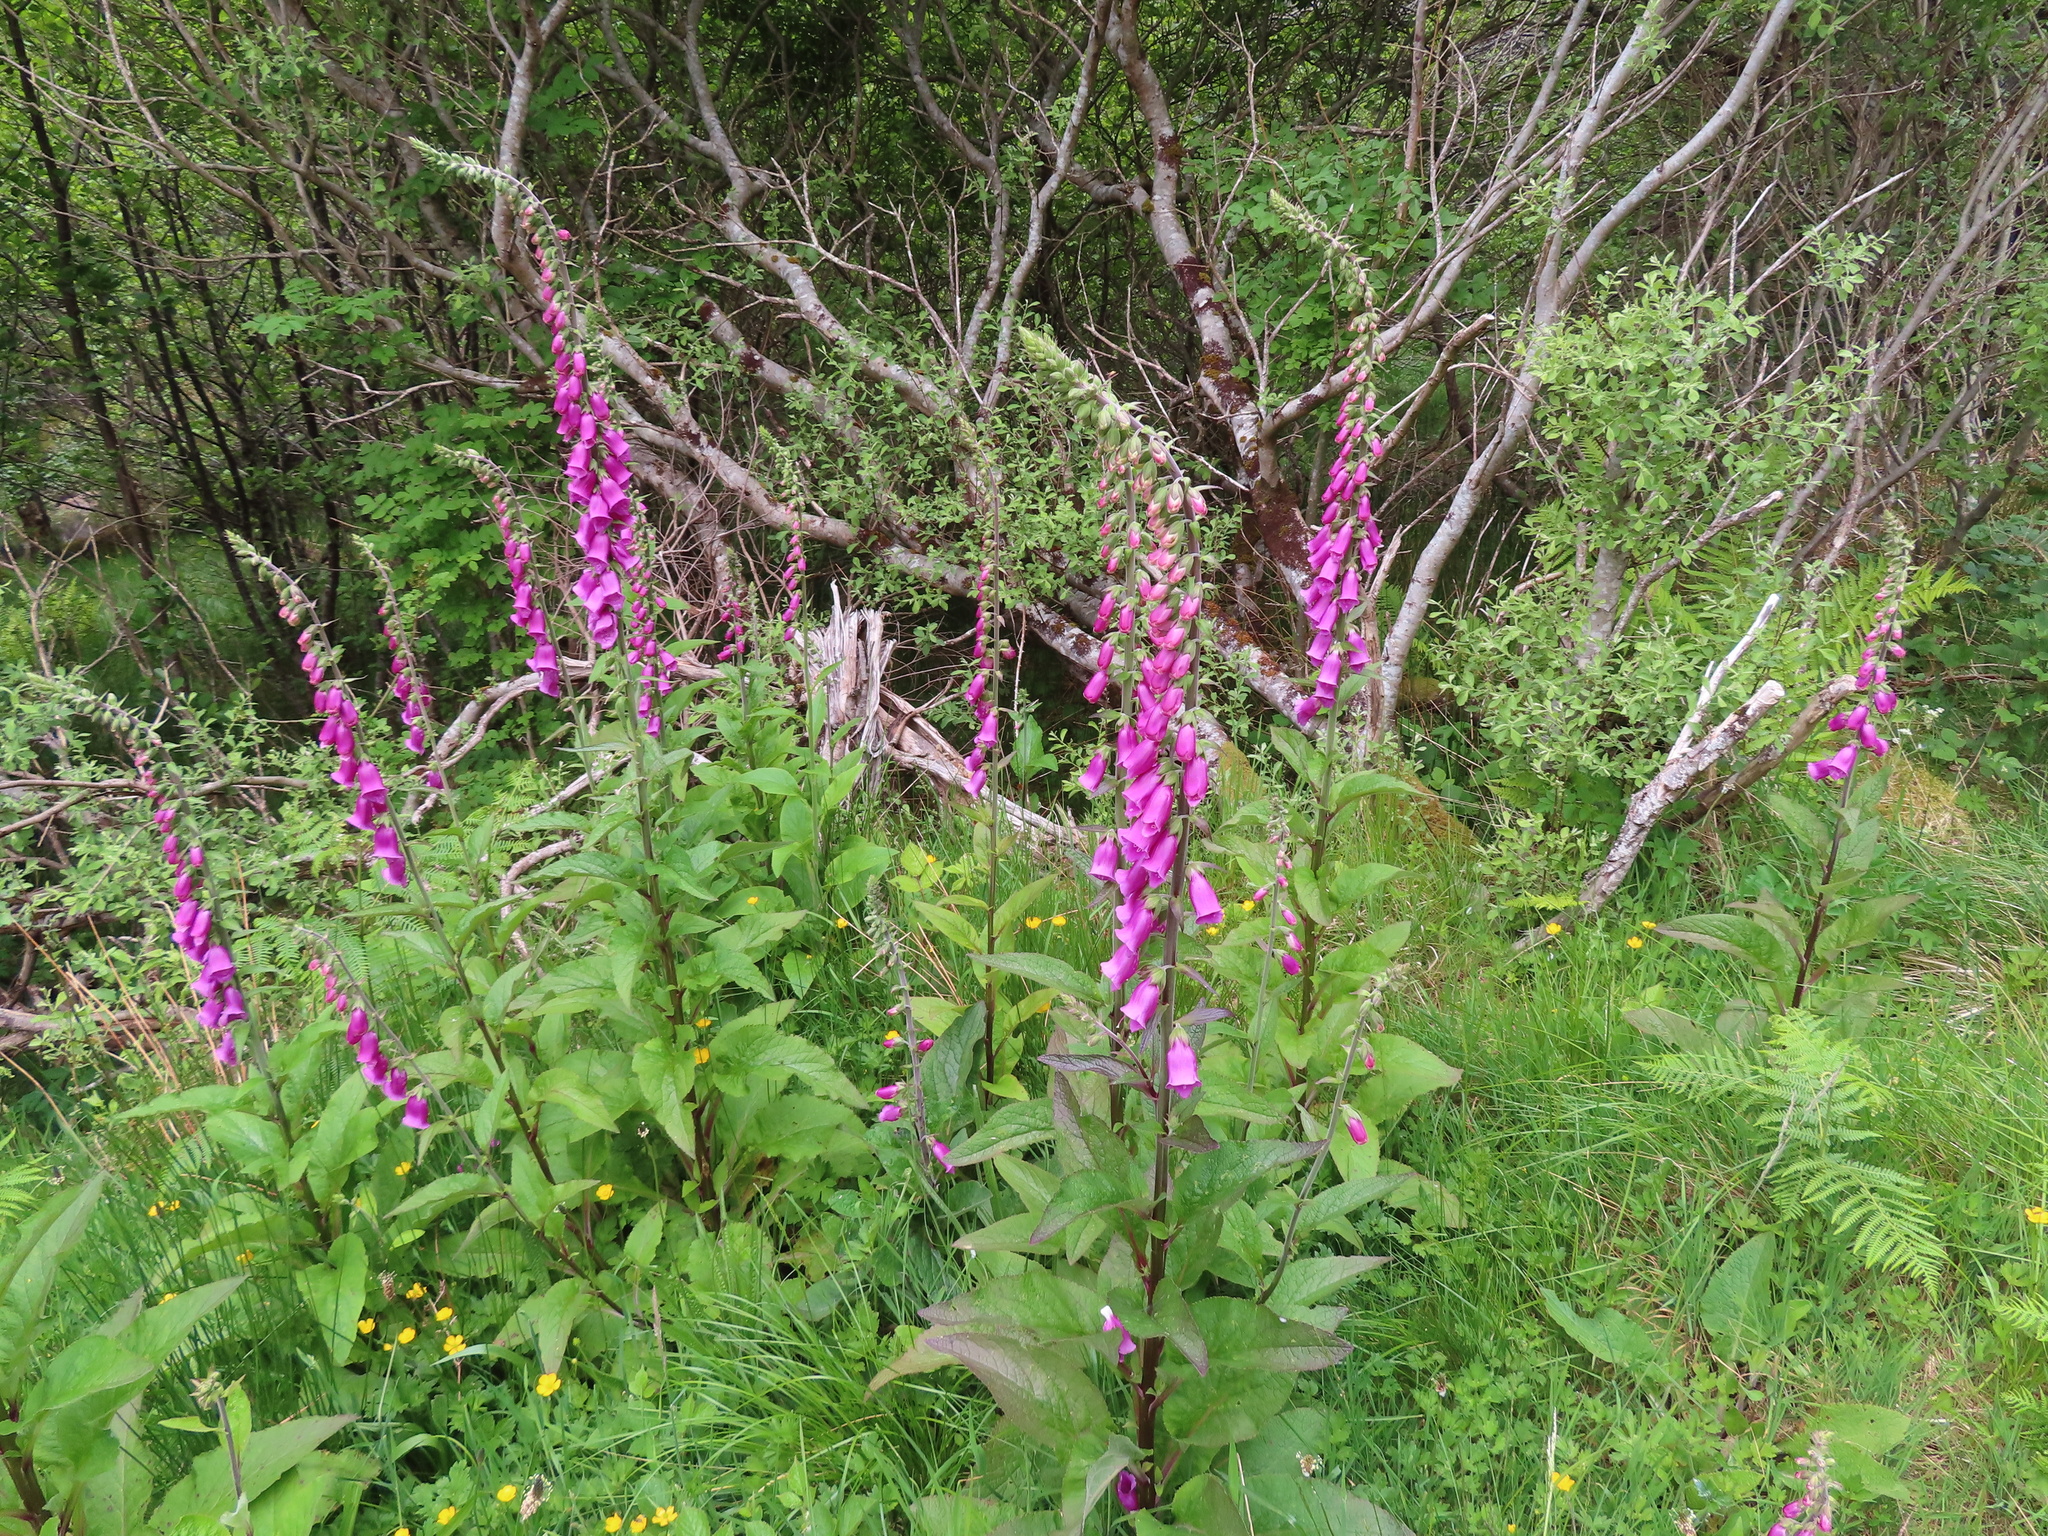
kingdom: Plantae
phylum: Tracheophyta
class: Magnoliopsida
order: Lamiales
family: Plantaginaceae
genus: Digitalis
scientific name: Digitalis purpurea
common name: Foxglove
